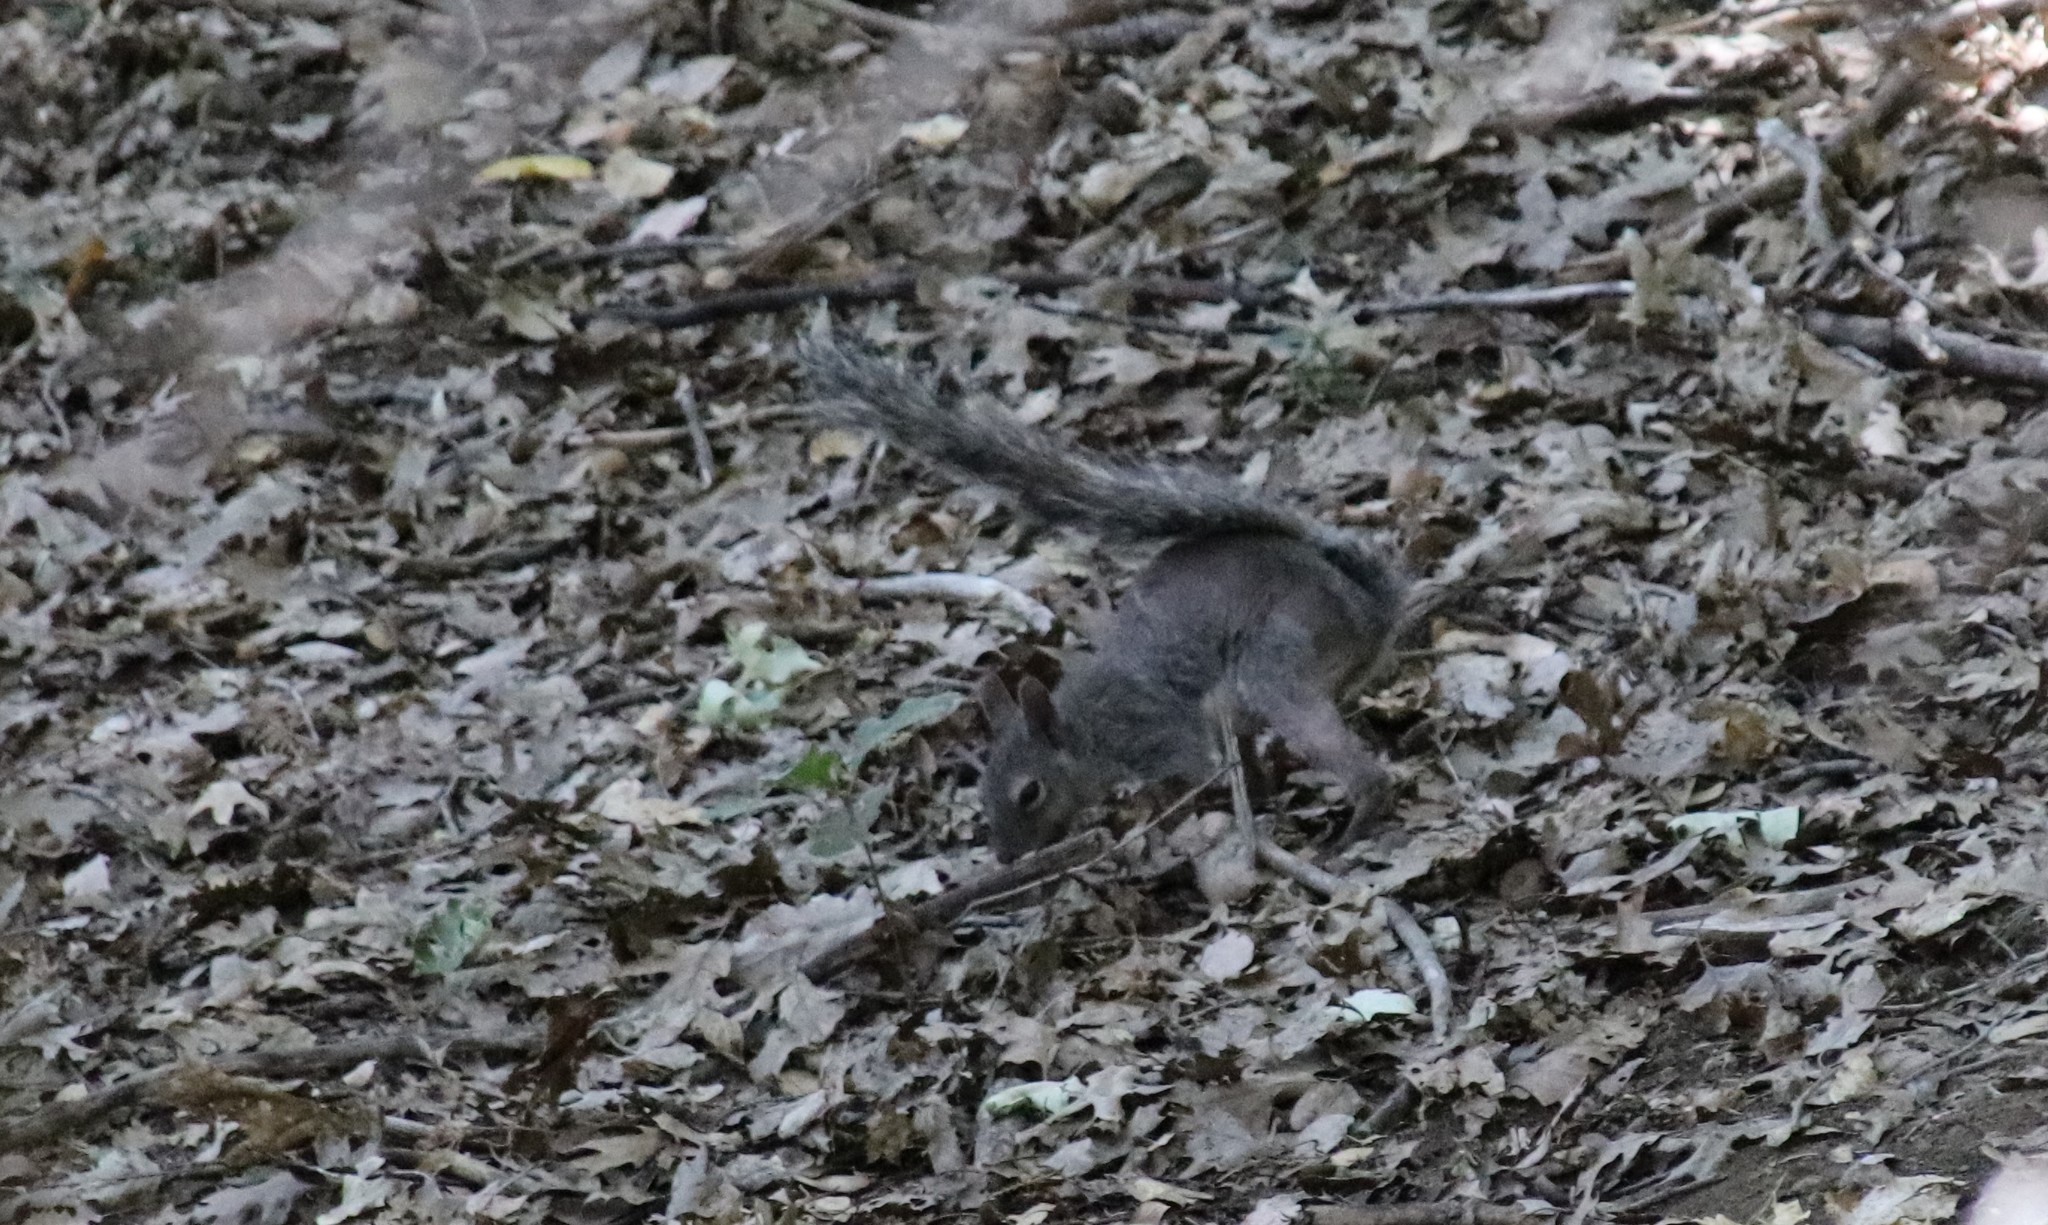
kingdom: Animalia
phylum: Chordata
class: Mammalia
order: Rodentia
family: Sciuridae
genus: Sciurus
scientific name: Sciurus griseus
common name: Western gray squirrel
